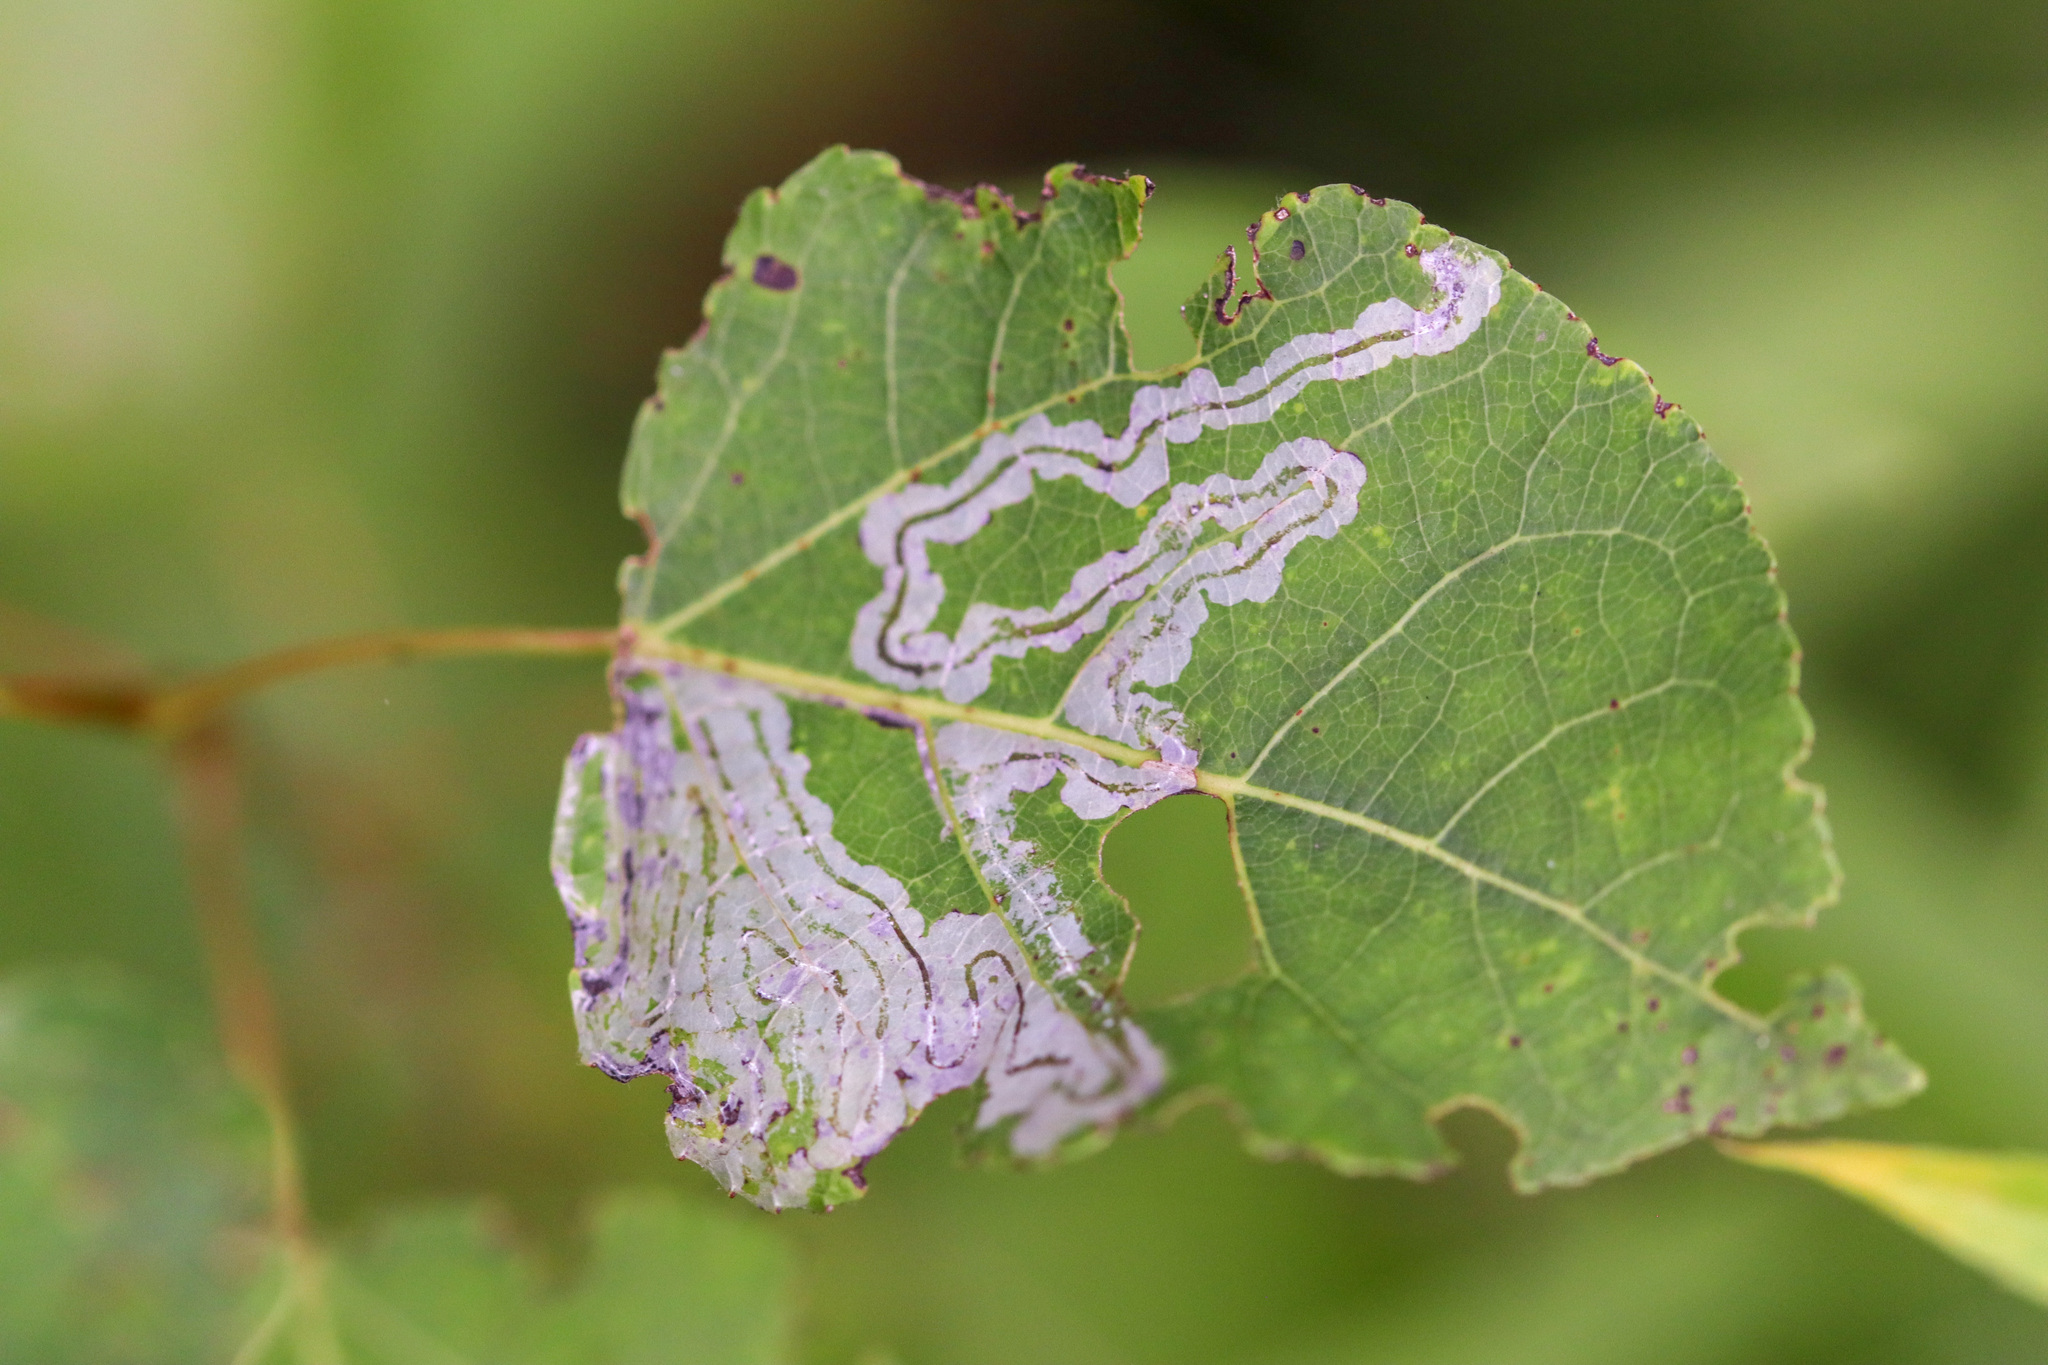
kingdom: Animalia
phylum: Arthropoda
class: Insecta
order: Lepidoptera
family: Gracillariidae
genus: Phyllocnistis
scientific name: Phyllocnistis populiella
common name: Aspen serpentine leafminer moth
